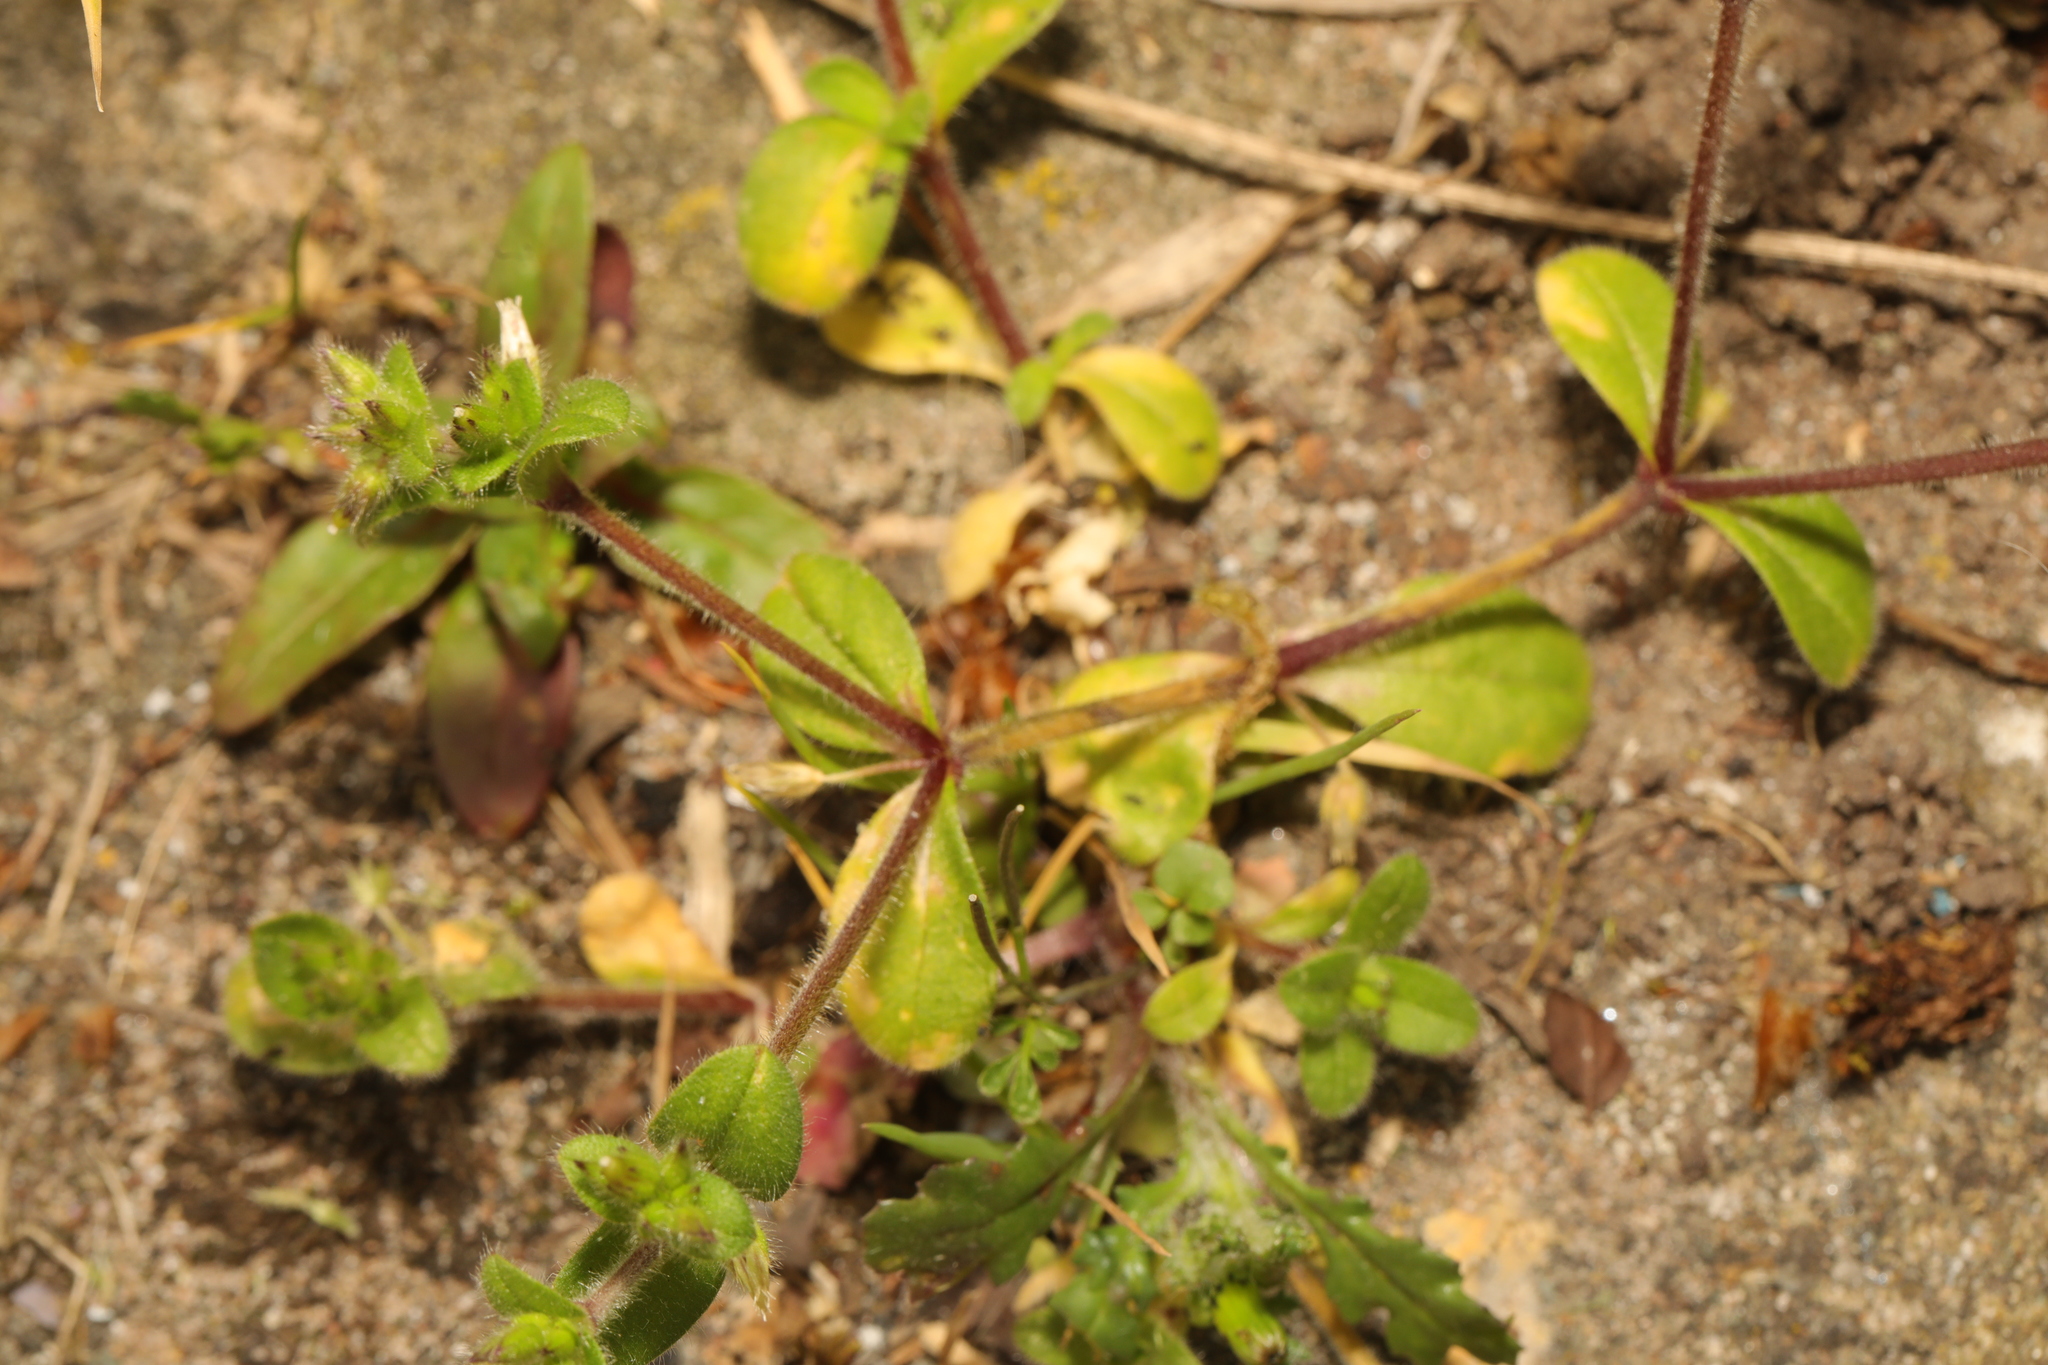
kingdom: Plantae
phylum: Tracheophyta
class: Magnoliopsida
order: Caryophyllales
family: Caryophyllaceae
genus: Cerastium
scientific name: Cerastium fontanum
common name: Common mouse-ear
